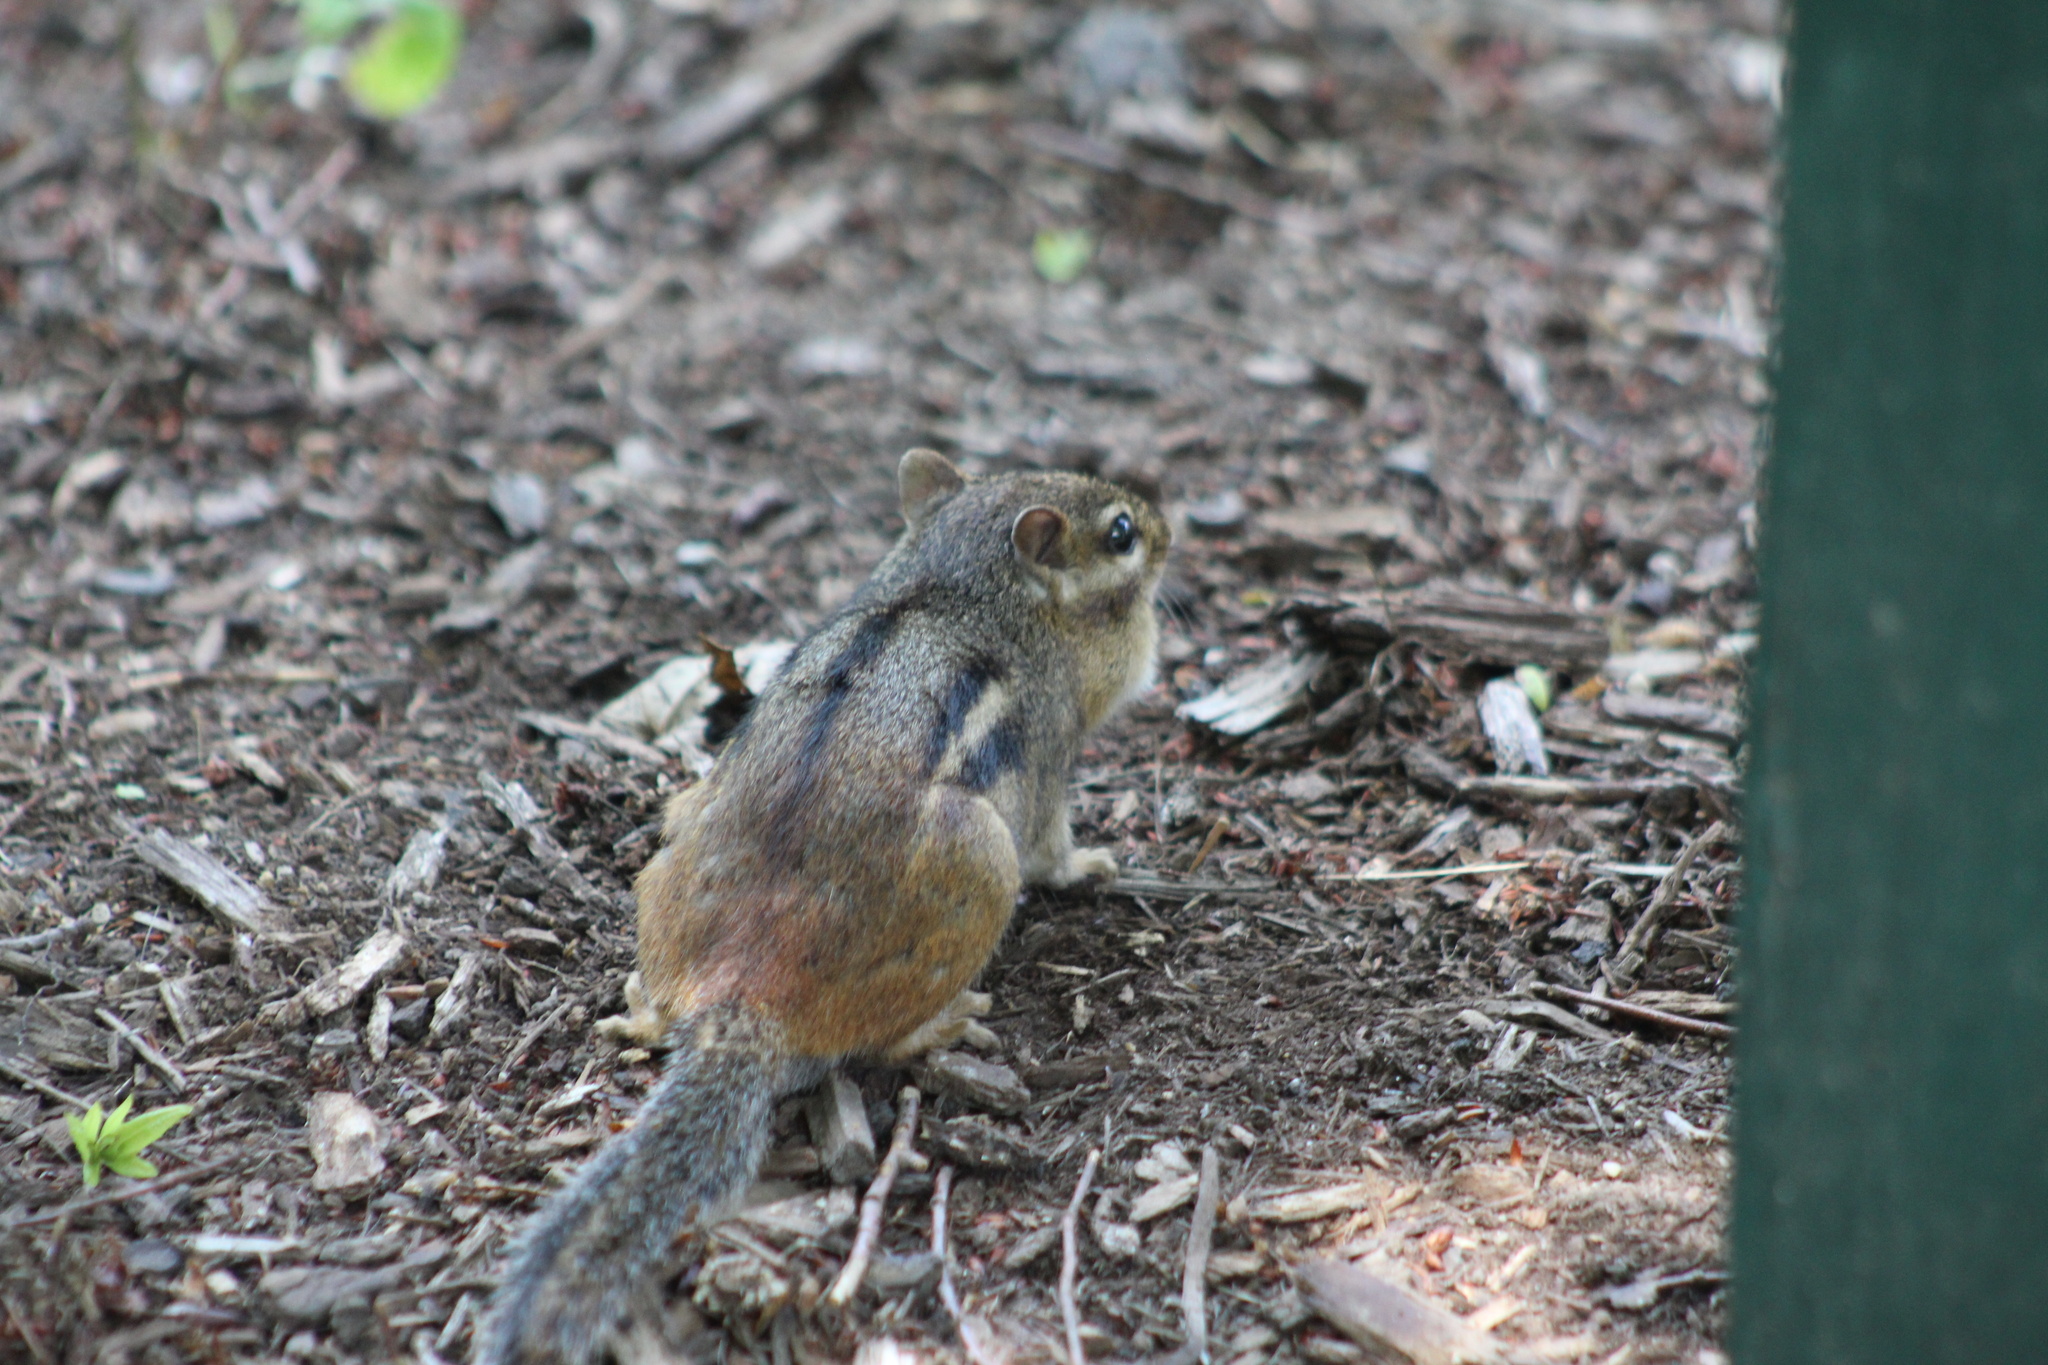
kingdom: Animalia
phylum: Chordata
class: Mammalia
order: Rodentia
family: Sciuridae
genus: Tamias
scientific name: Tamias striatus
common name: Eastern chipmunk
